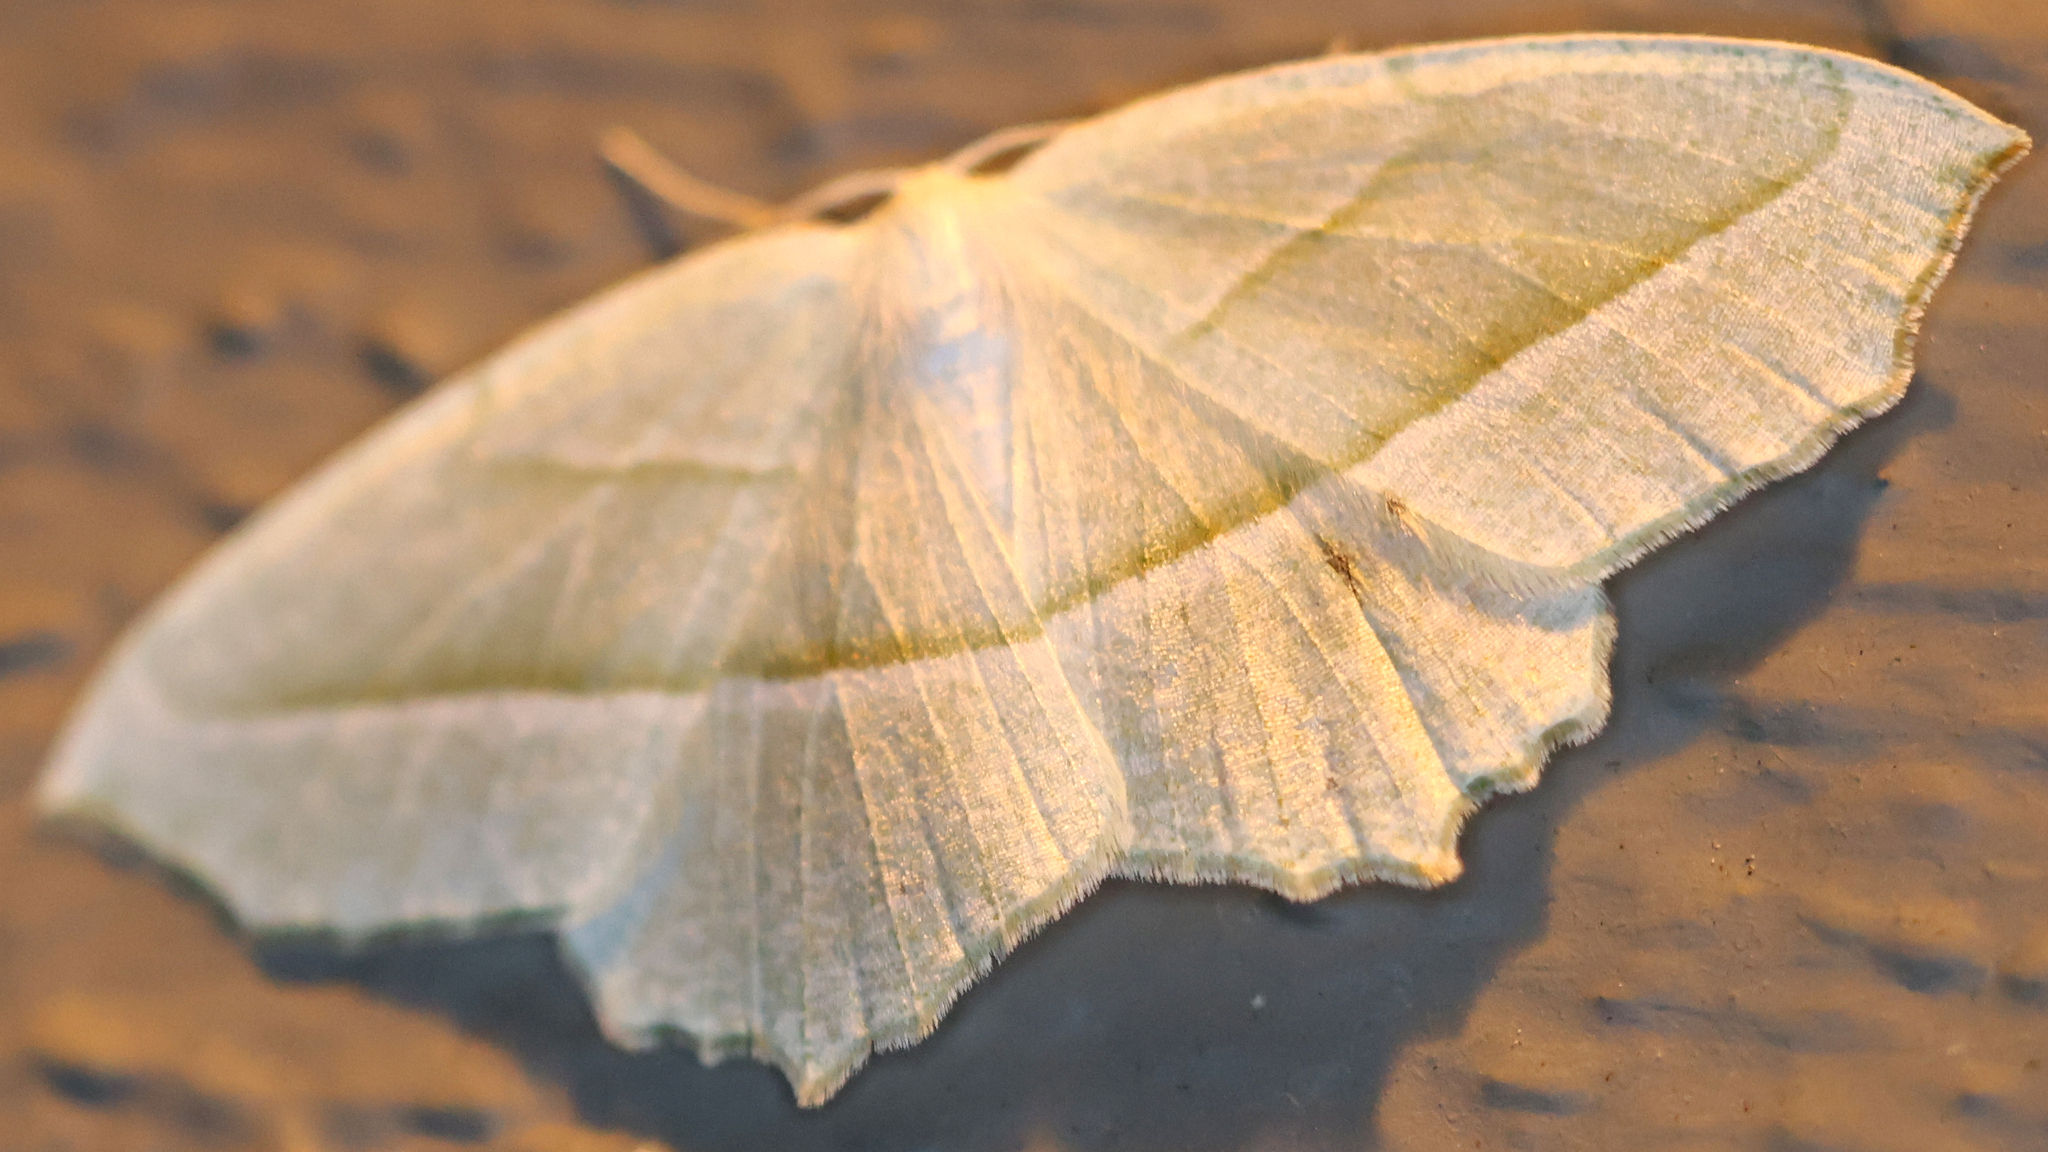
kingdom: Animalia
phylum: Arthropoda
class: Insecta
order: Lepidoptera
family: Geometridae
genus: Campaea
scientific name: Campaea perlata
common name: Fringed looper
